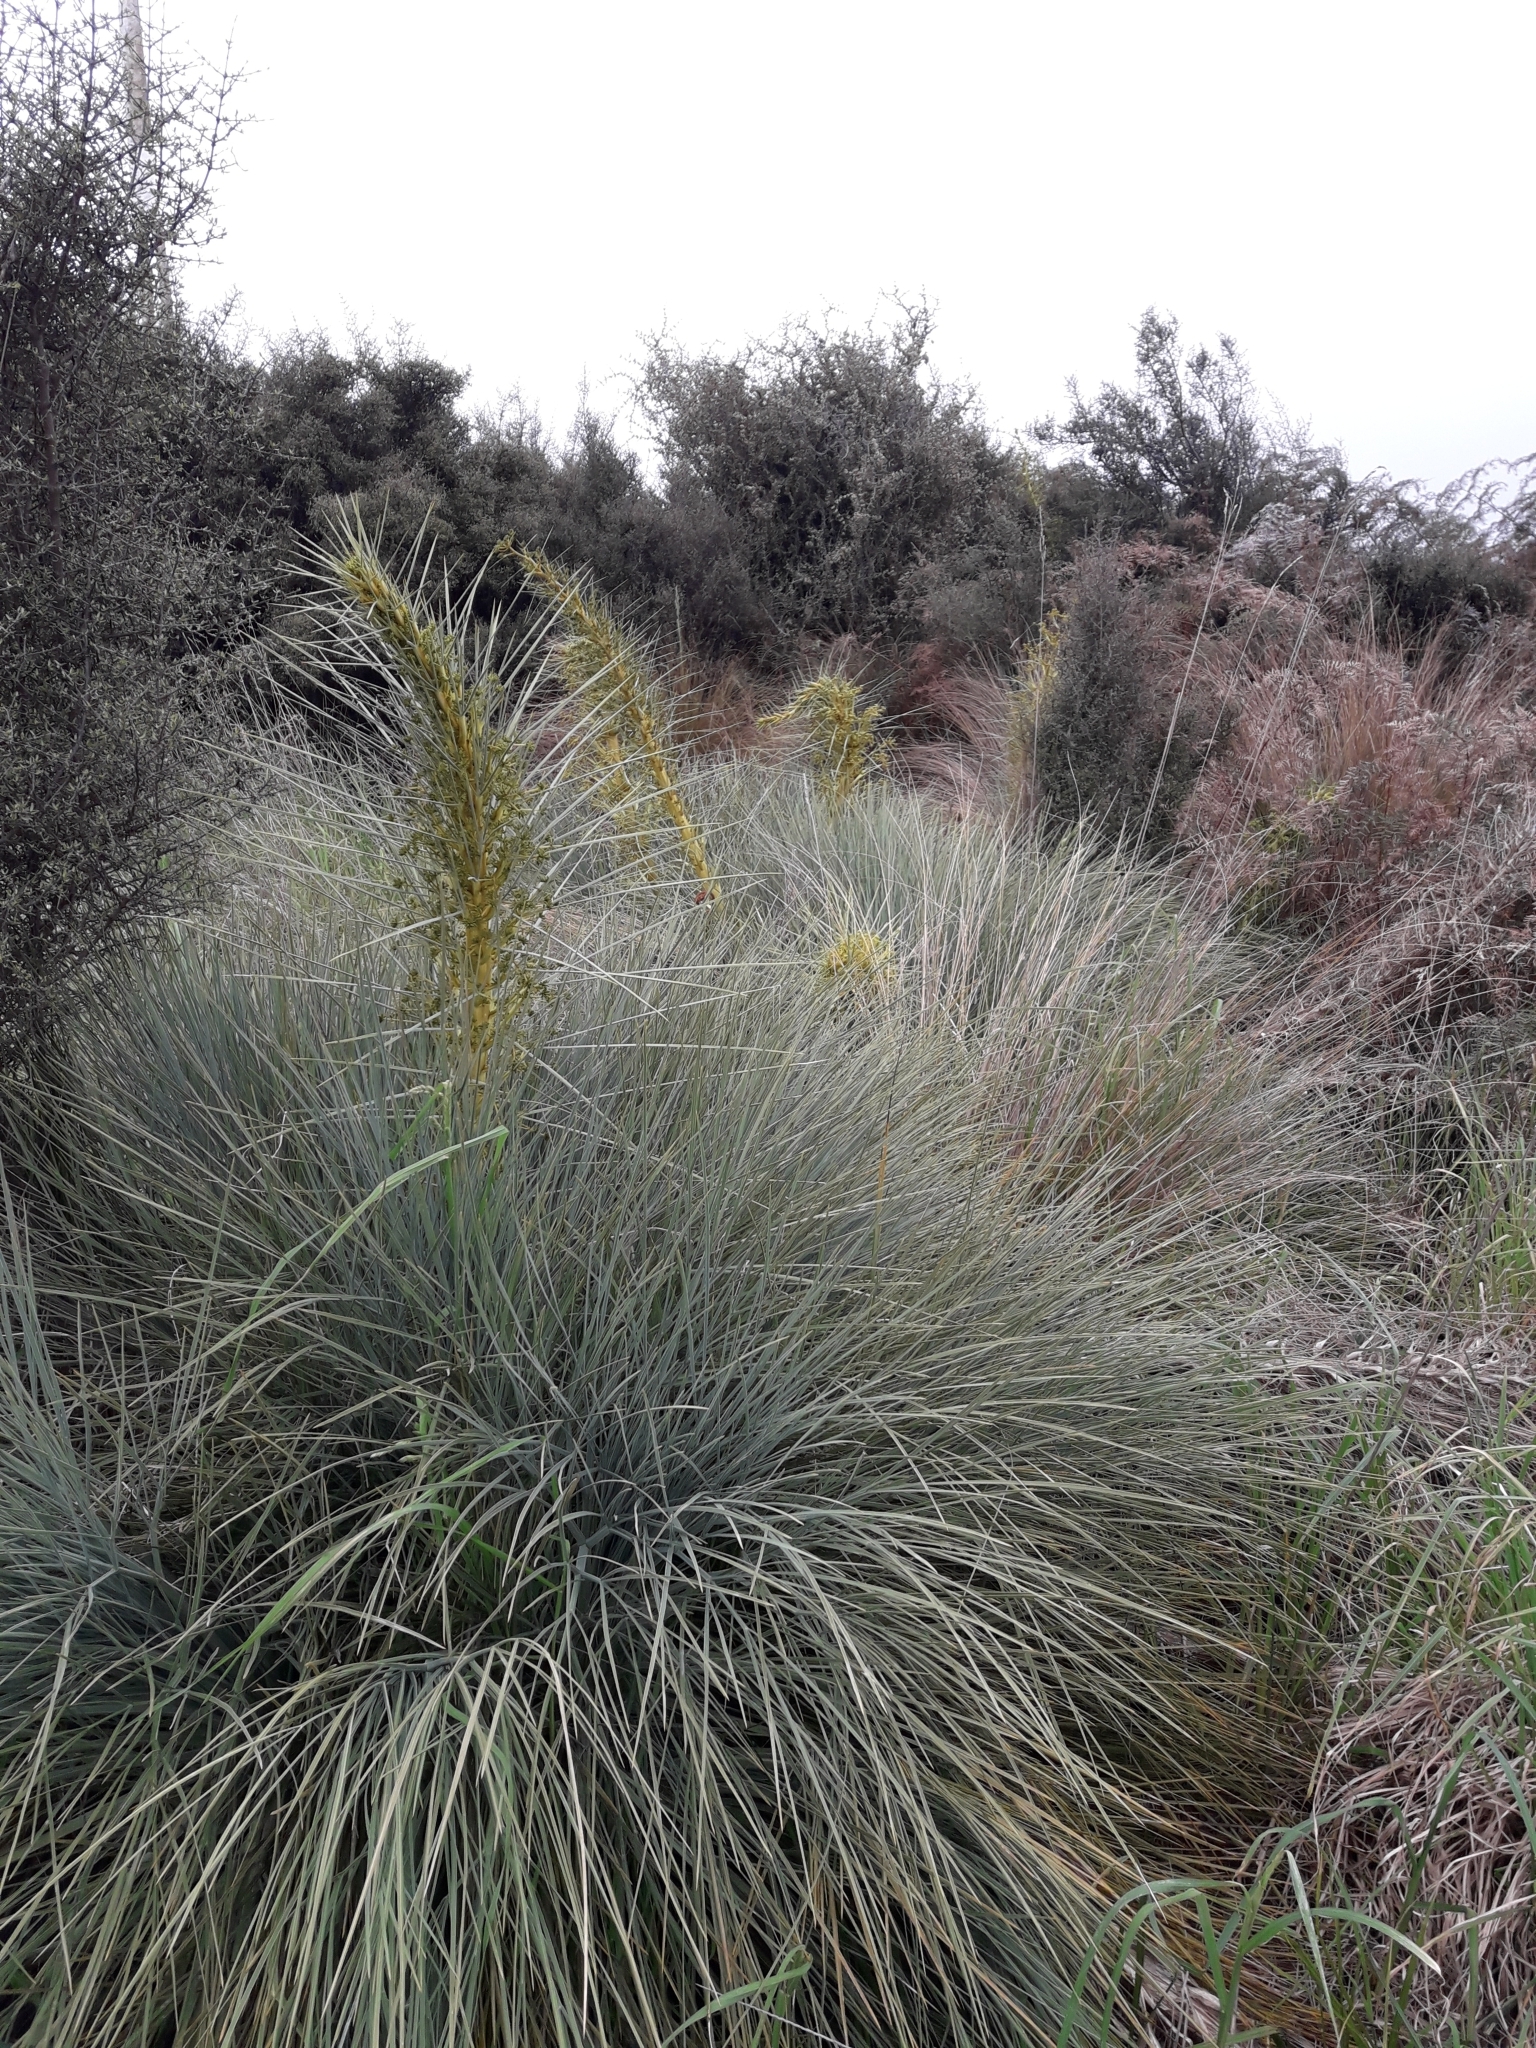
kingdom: Plantae
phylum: Tracheophyta
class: Magnoliopsida
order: Apiales
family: Apiaceae
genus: Aciphylla
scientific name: Aciphylla glaucescens
